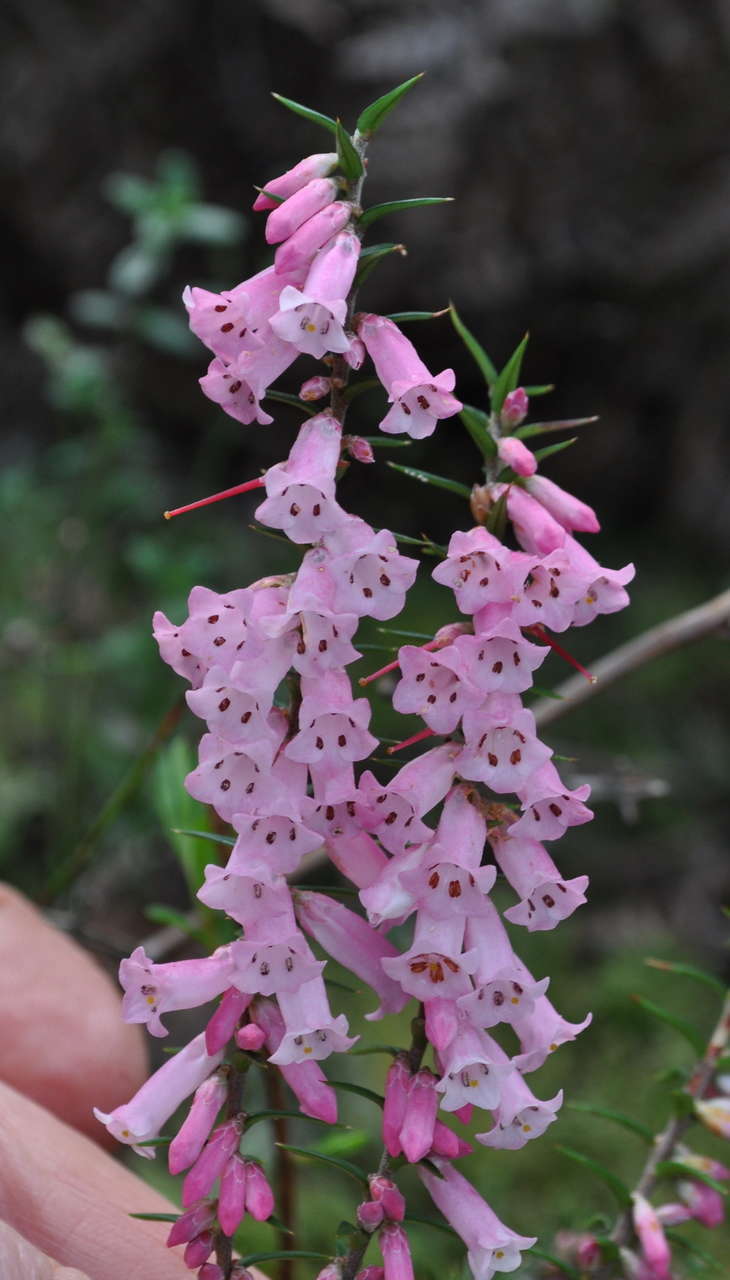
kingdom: Plantae
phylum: Tracheophyta
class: Magnoliopsida
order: Ericales
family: Ericaceae
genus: Epacris
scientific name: Epacris impressa
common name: Common-heath
